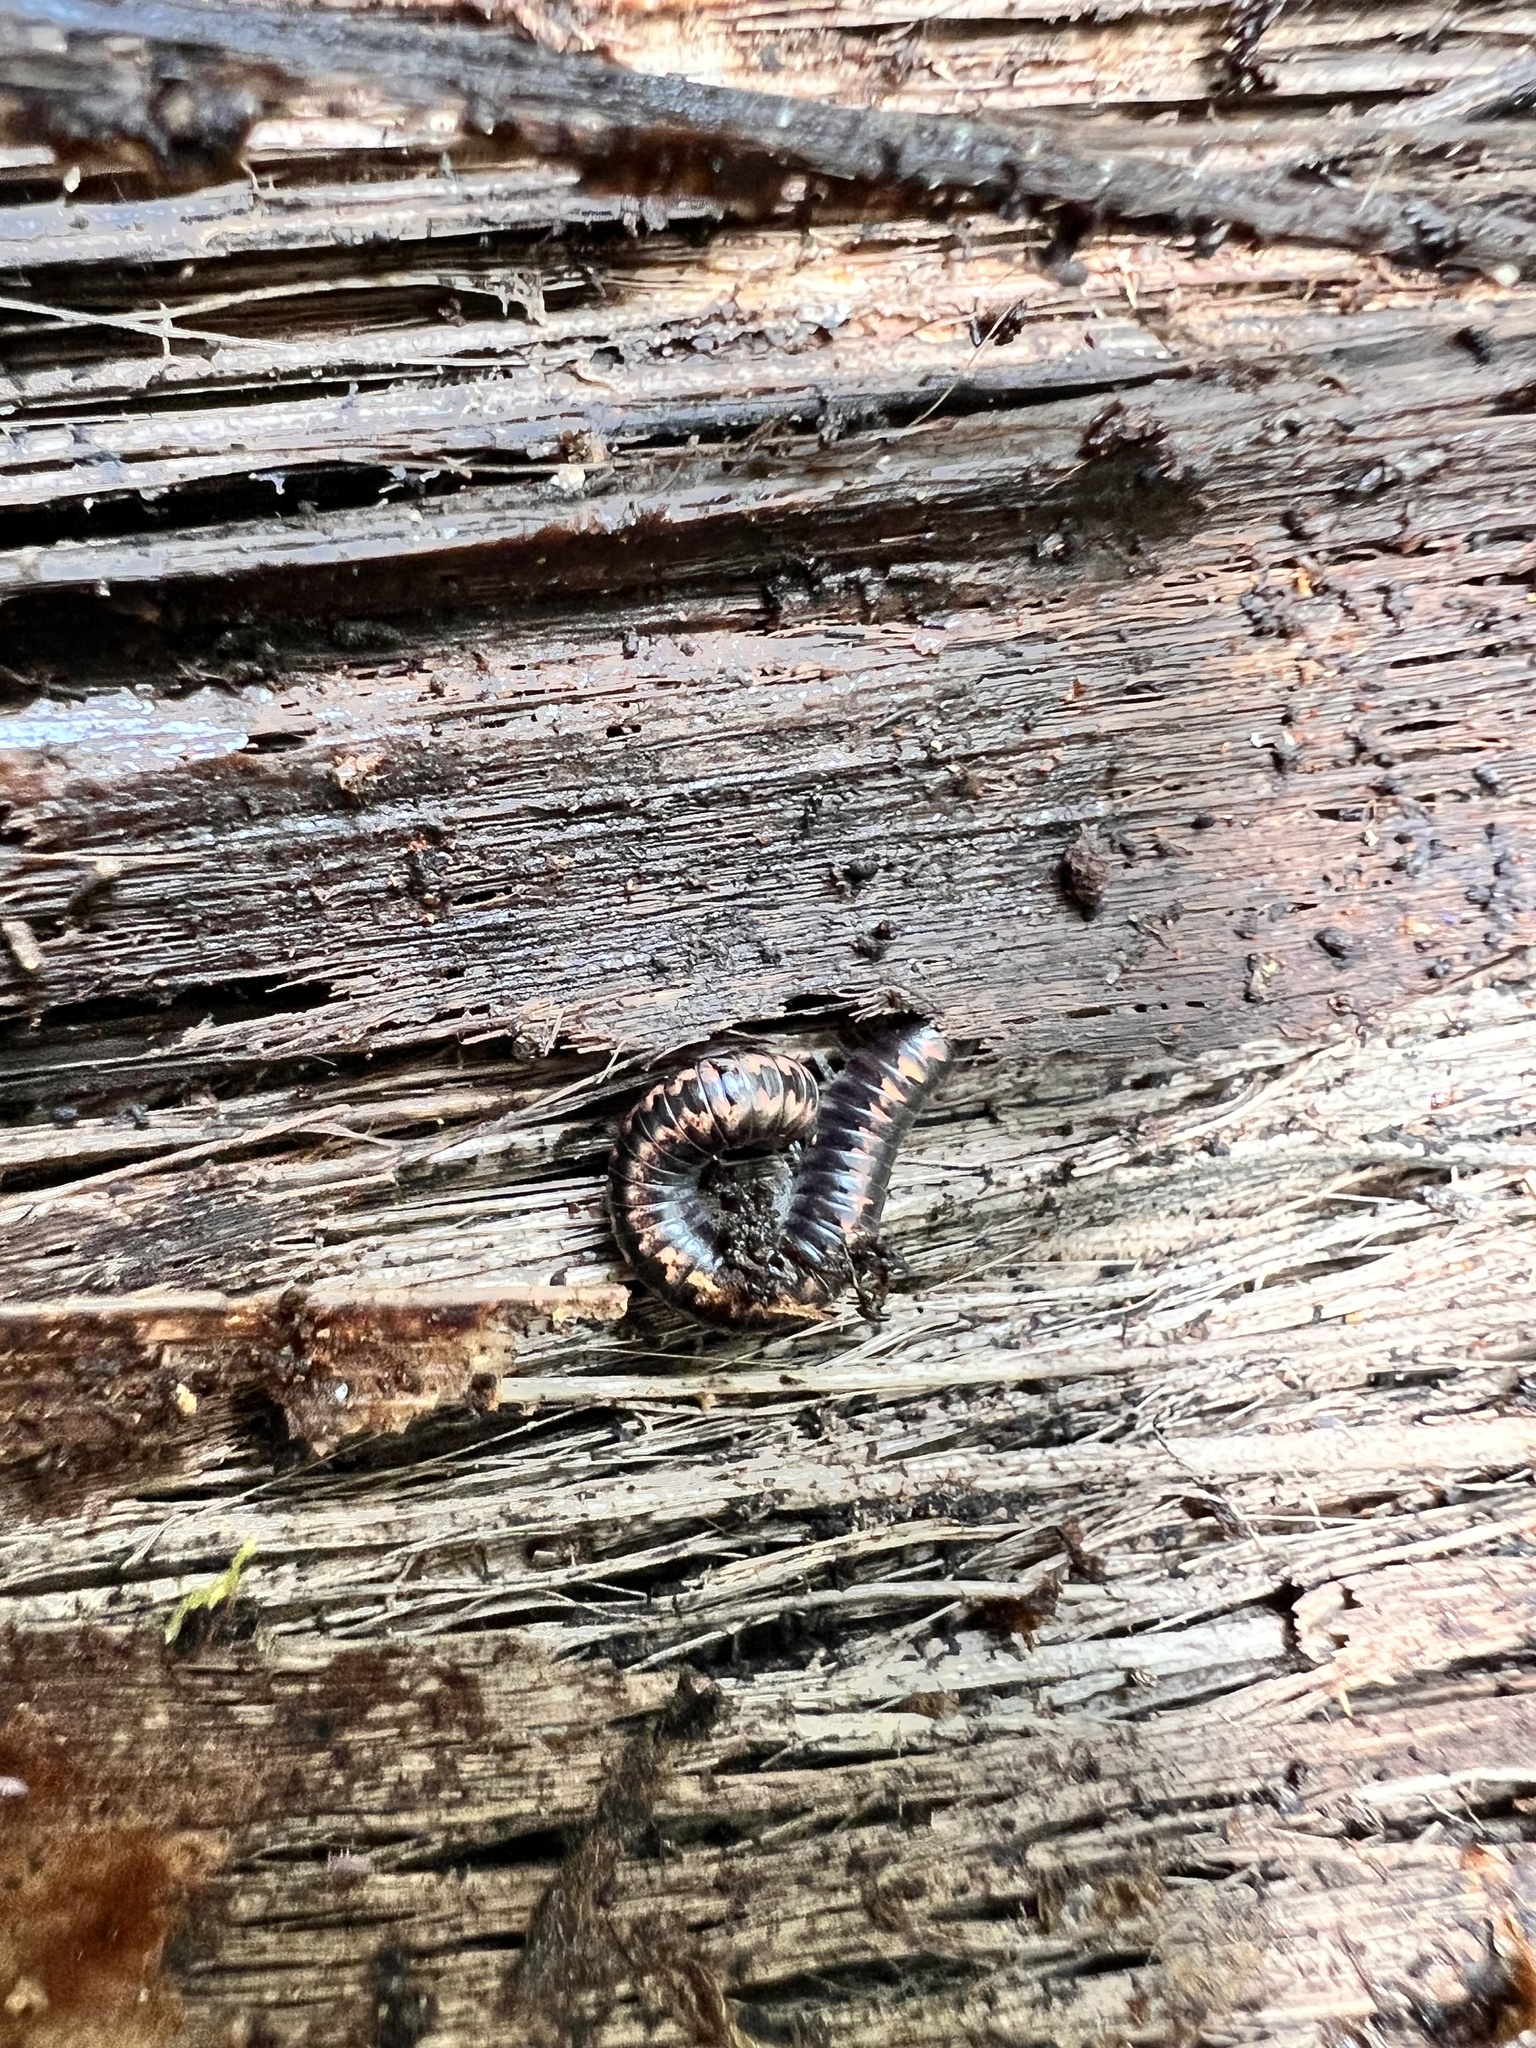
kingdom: Animalia
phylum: Arthropoda
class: Diplopoda
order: Spirobolida
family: Spirobolellidae
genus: Spirobolellus
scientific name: Spirobolellus antipodarum
